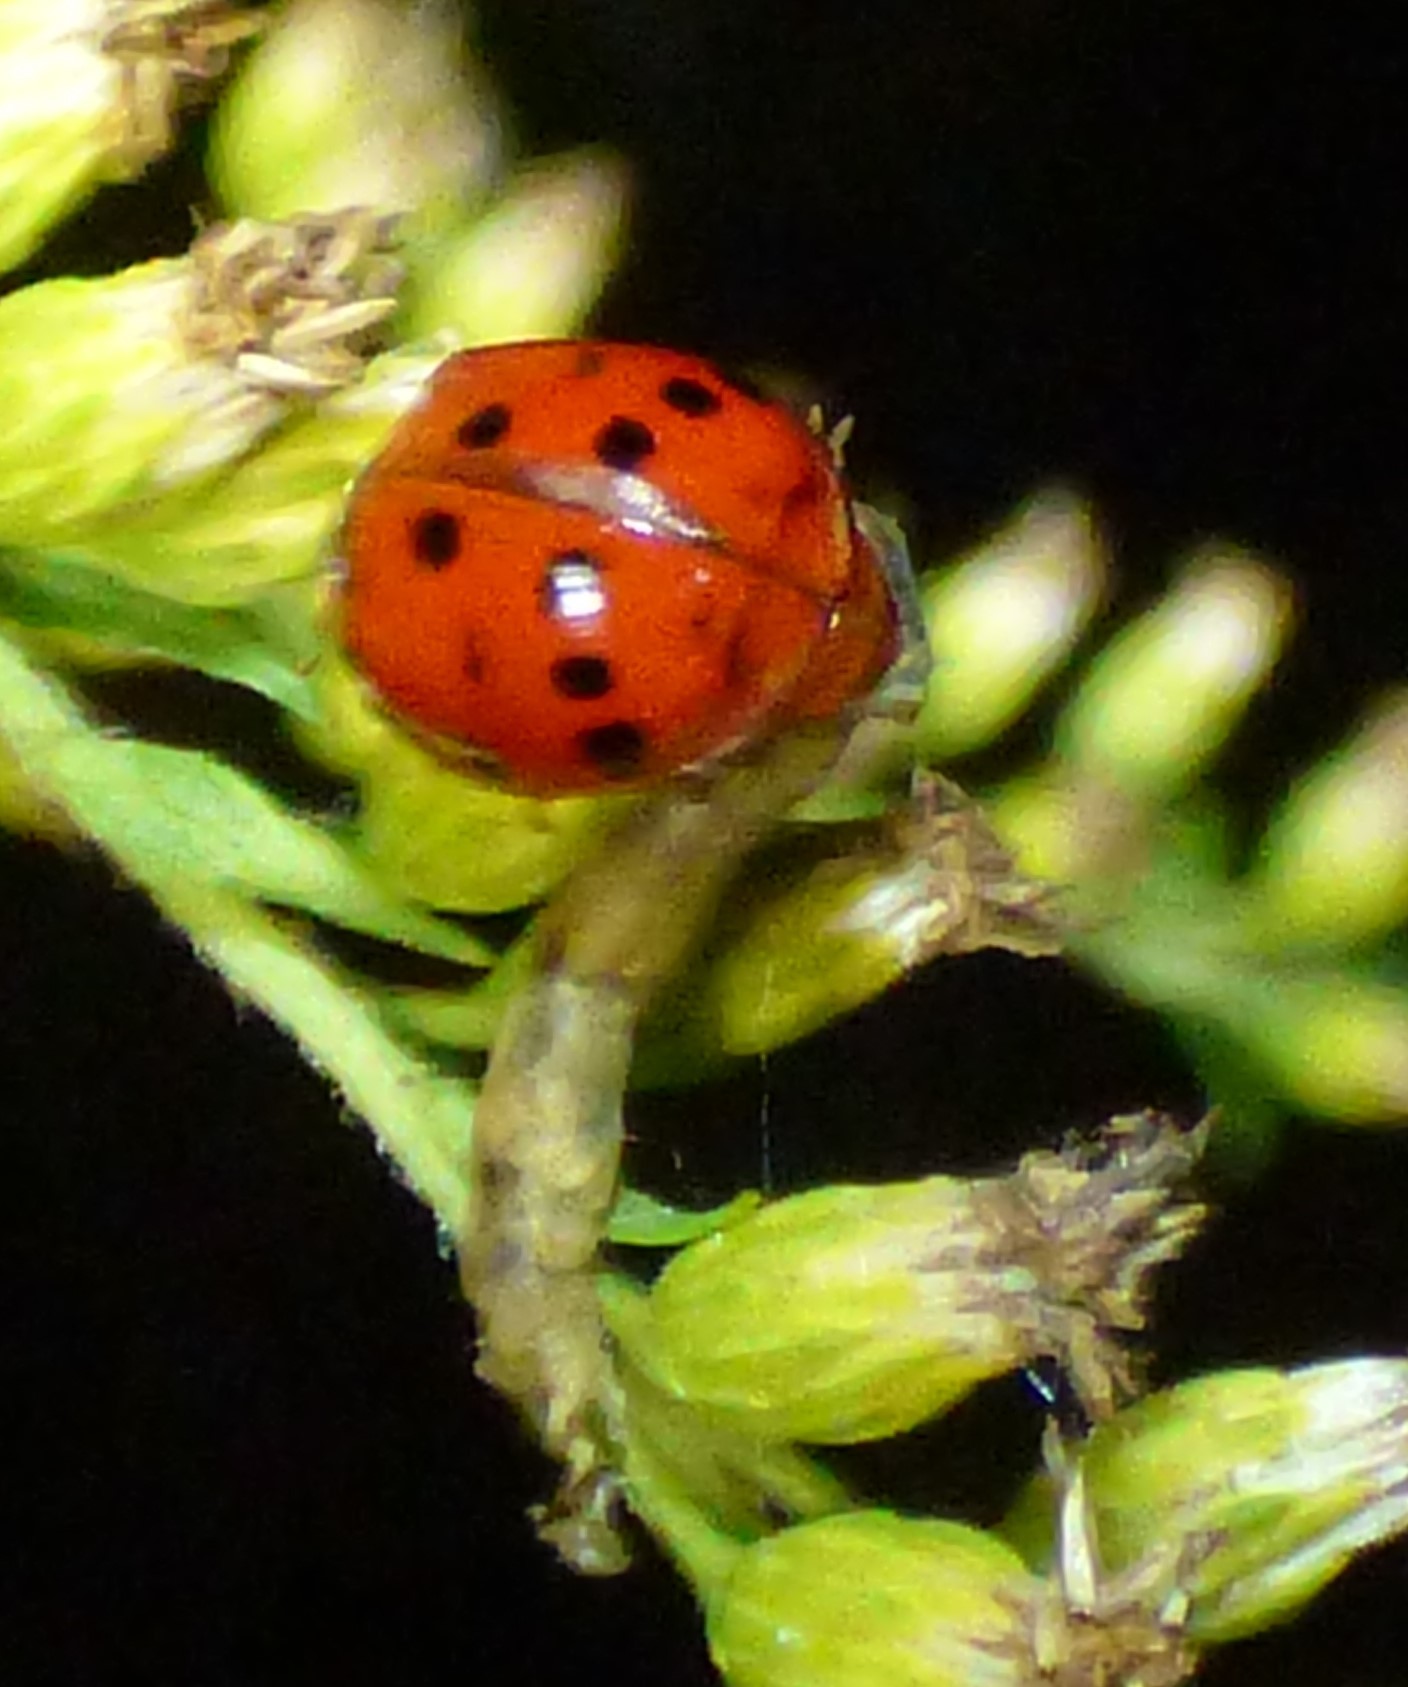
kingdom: Animalia
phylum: Arthropoda
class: Insecta
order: Coleoptera
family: Coccinellidae
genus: Harmonia
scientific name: Harmonia axyridis
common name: Harlequin ladybird
